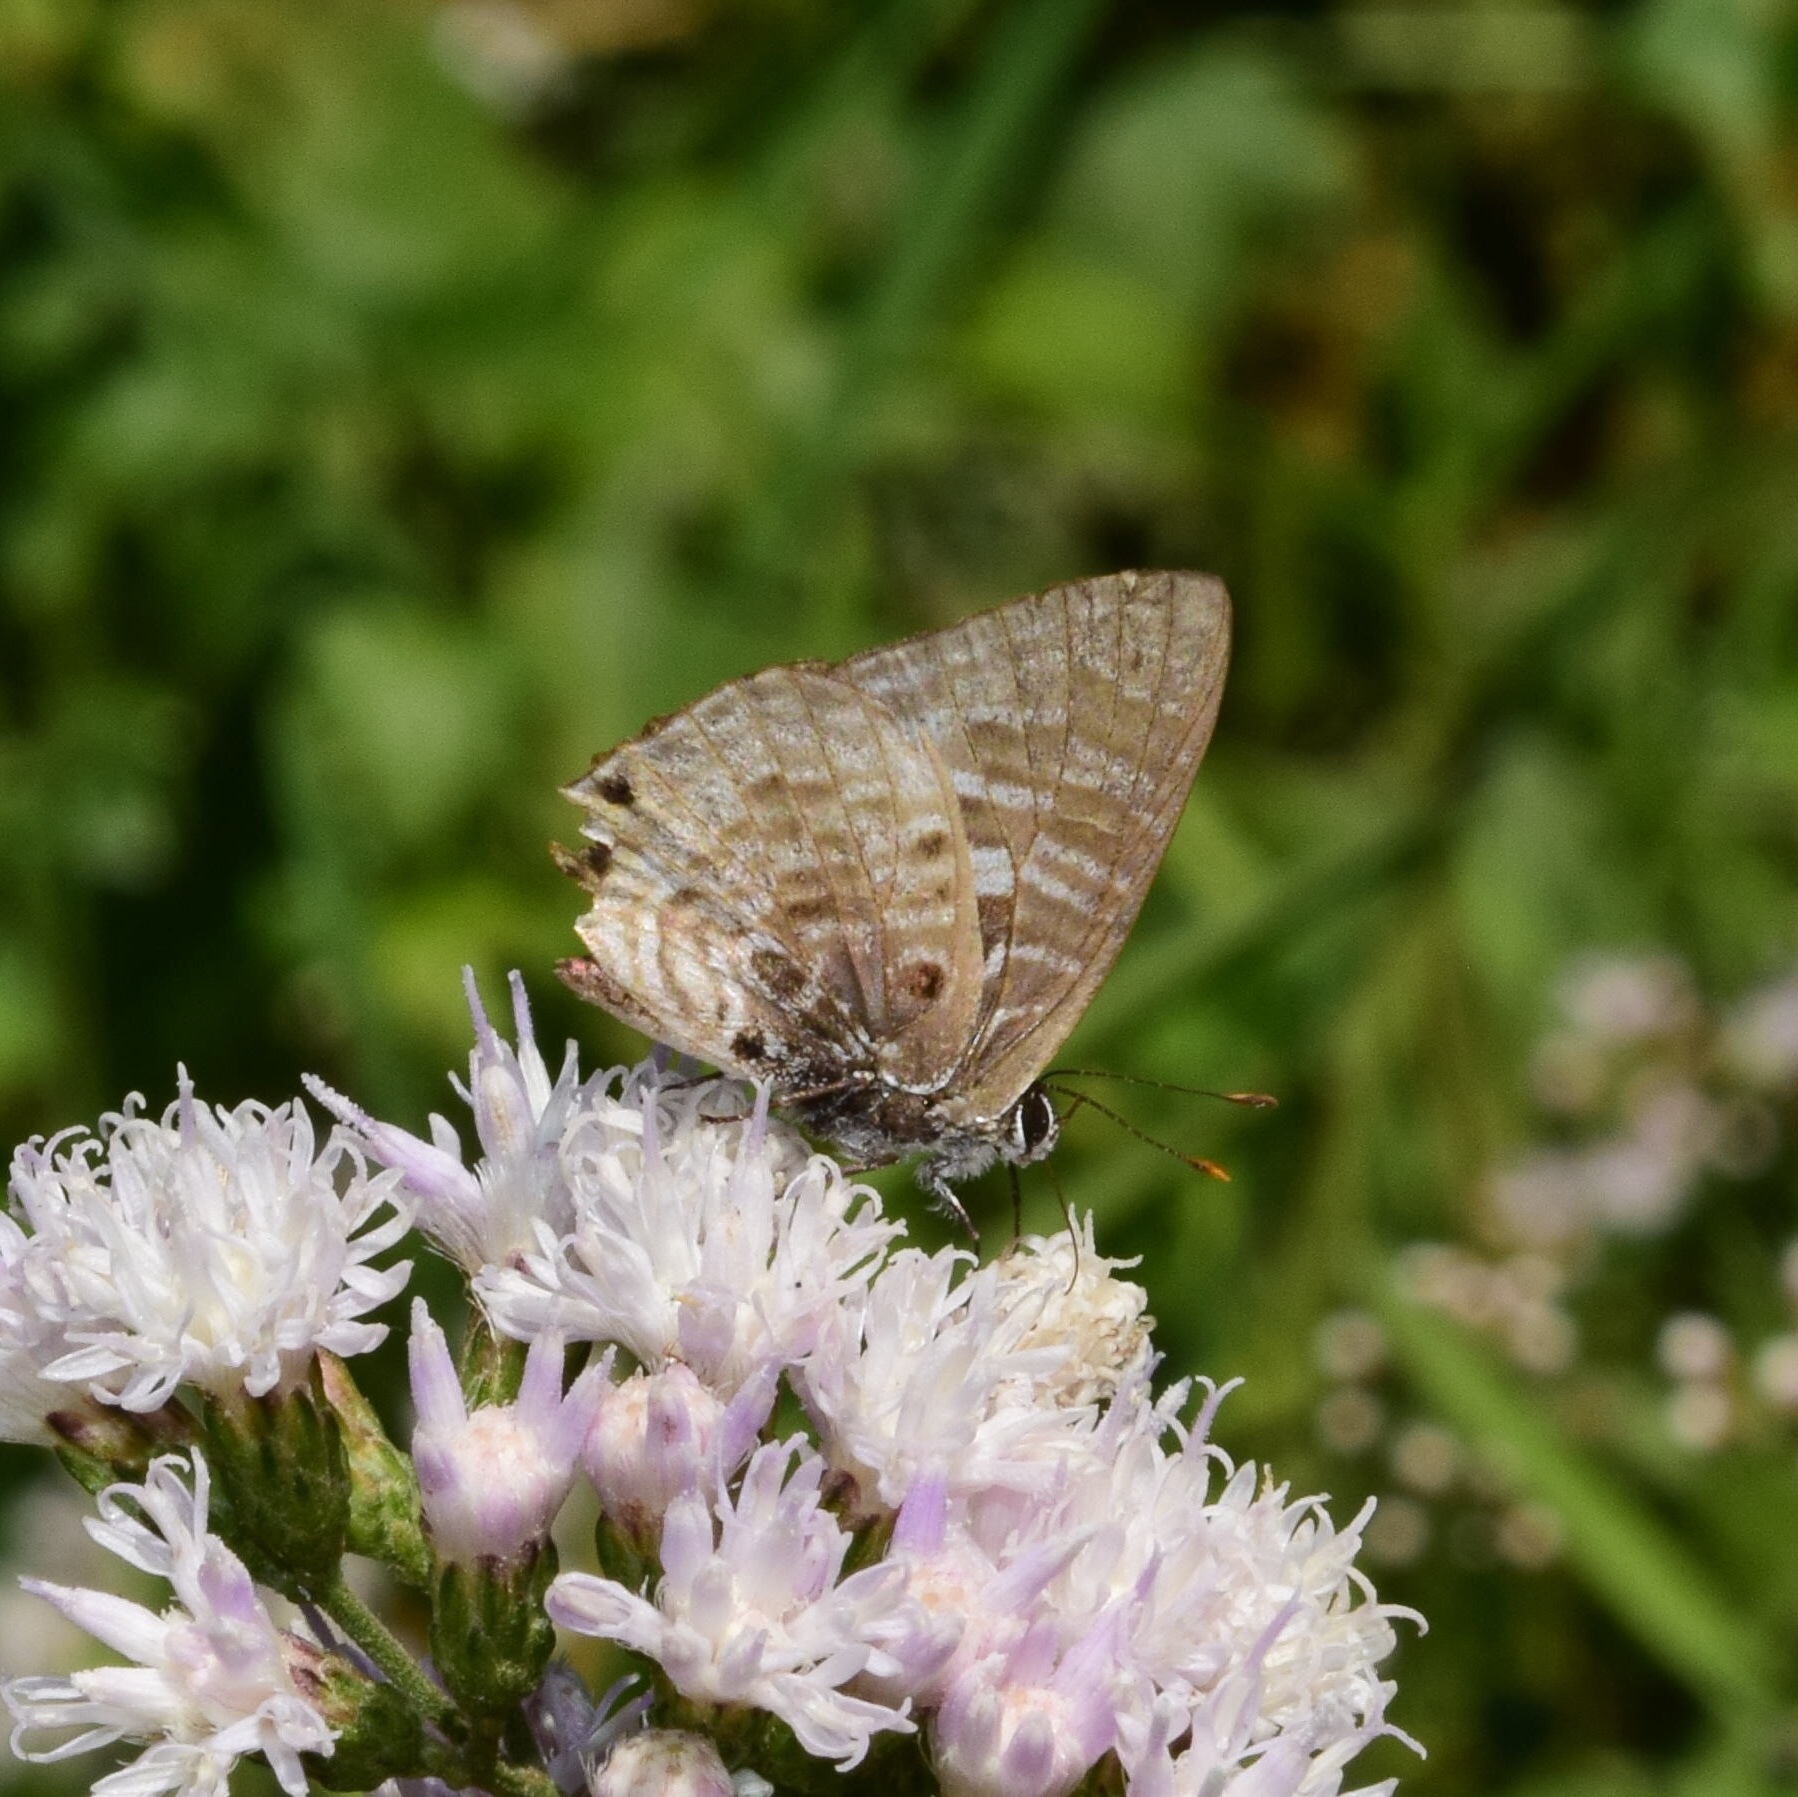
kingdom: Animalia
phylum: Arthropoda
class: Insecta
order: Lepidoptera
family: Lycaenidae
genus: Anthene
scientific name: Anthene larydas
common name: Forest hairtail
